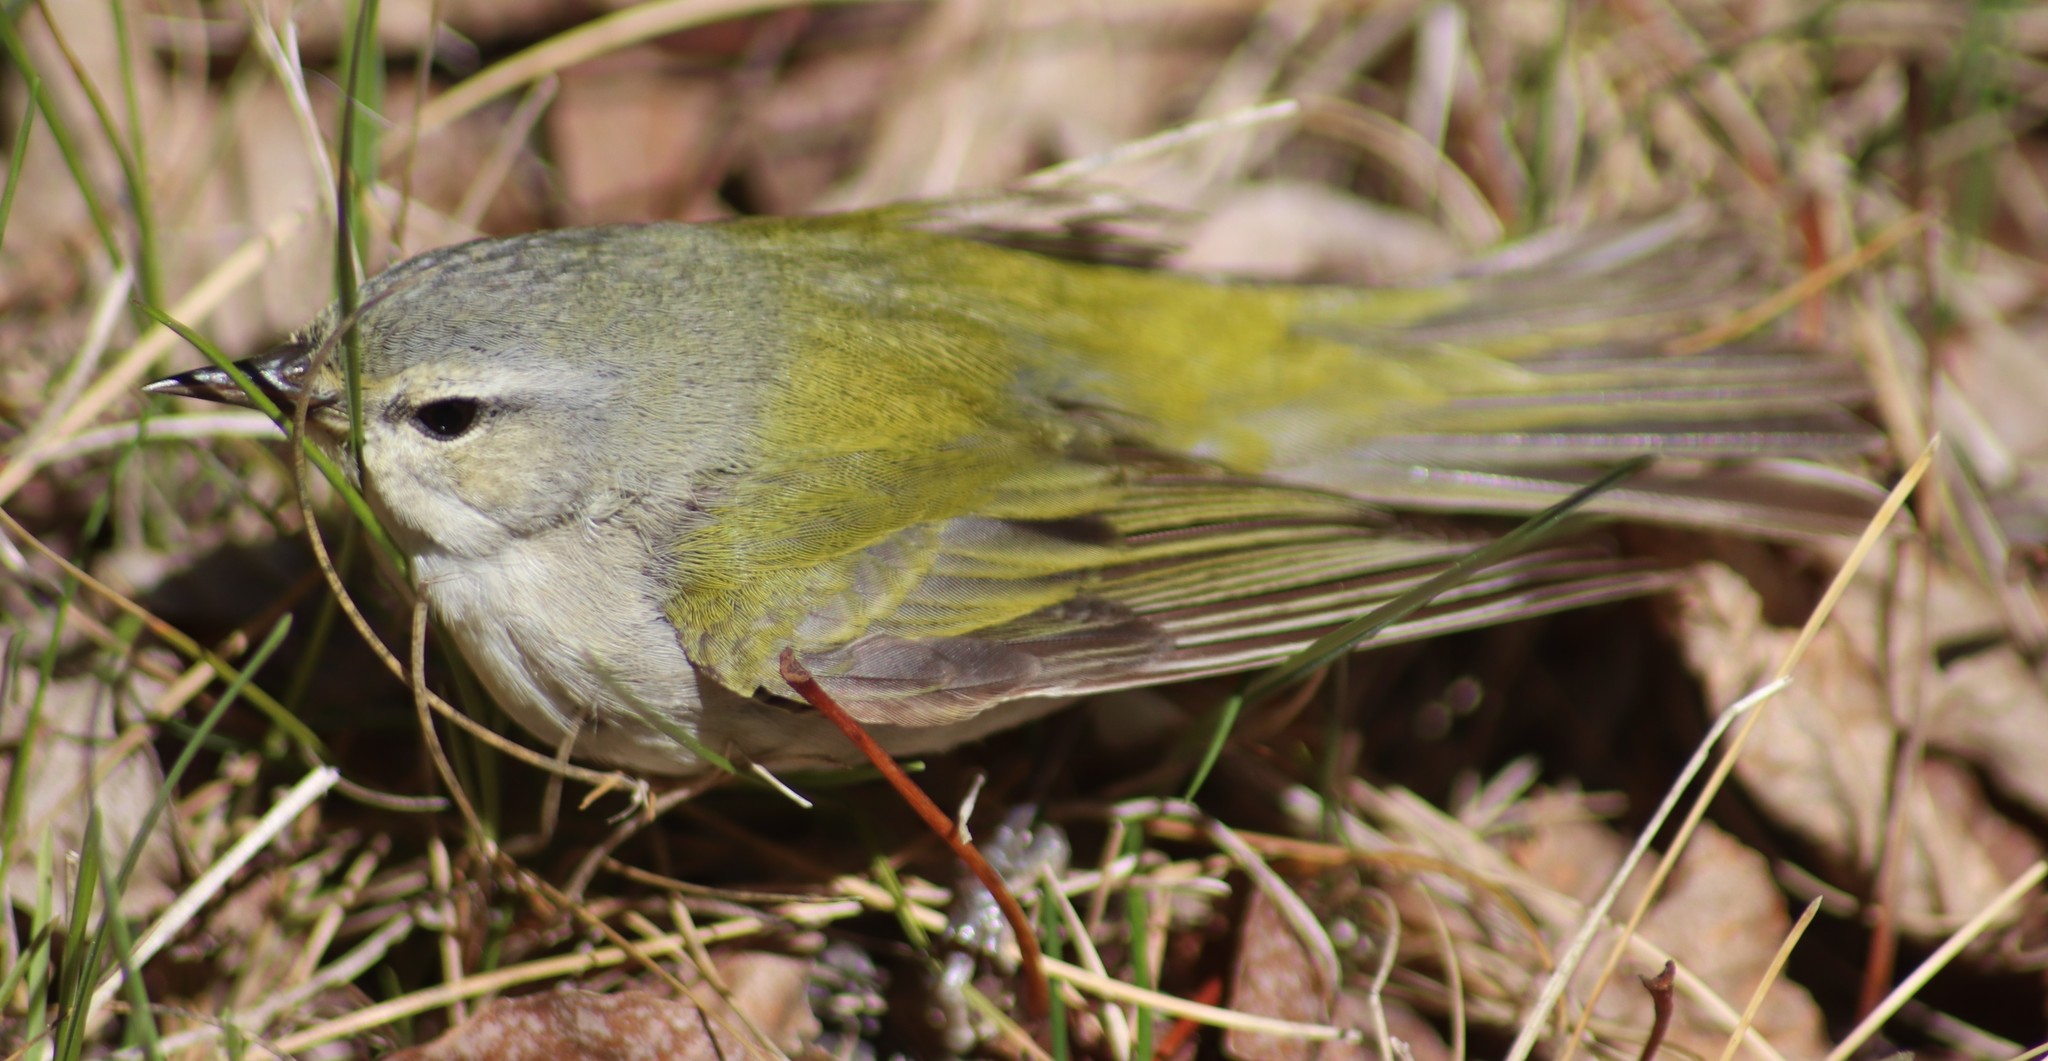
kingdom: Animalia
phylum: Chordata
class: Aves
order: Passeriformes
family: Parulidae
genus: Leiothlypis
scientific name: Leiothlypis peregrina
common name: Tennessee warbler
